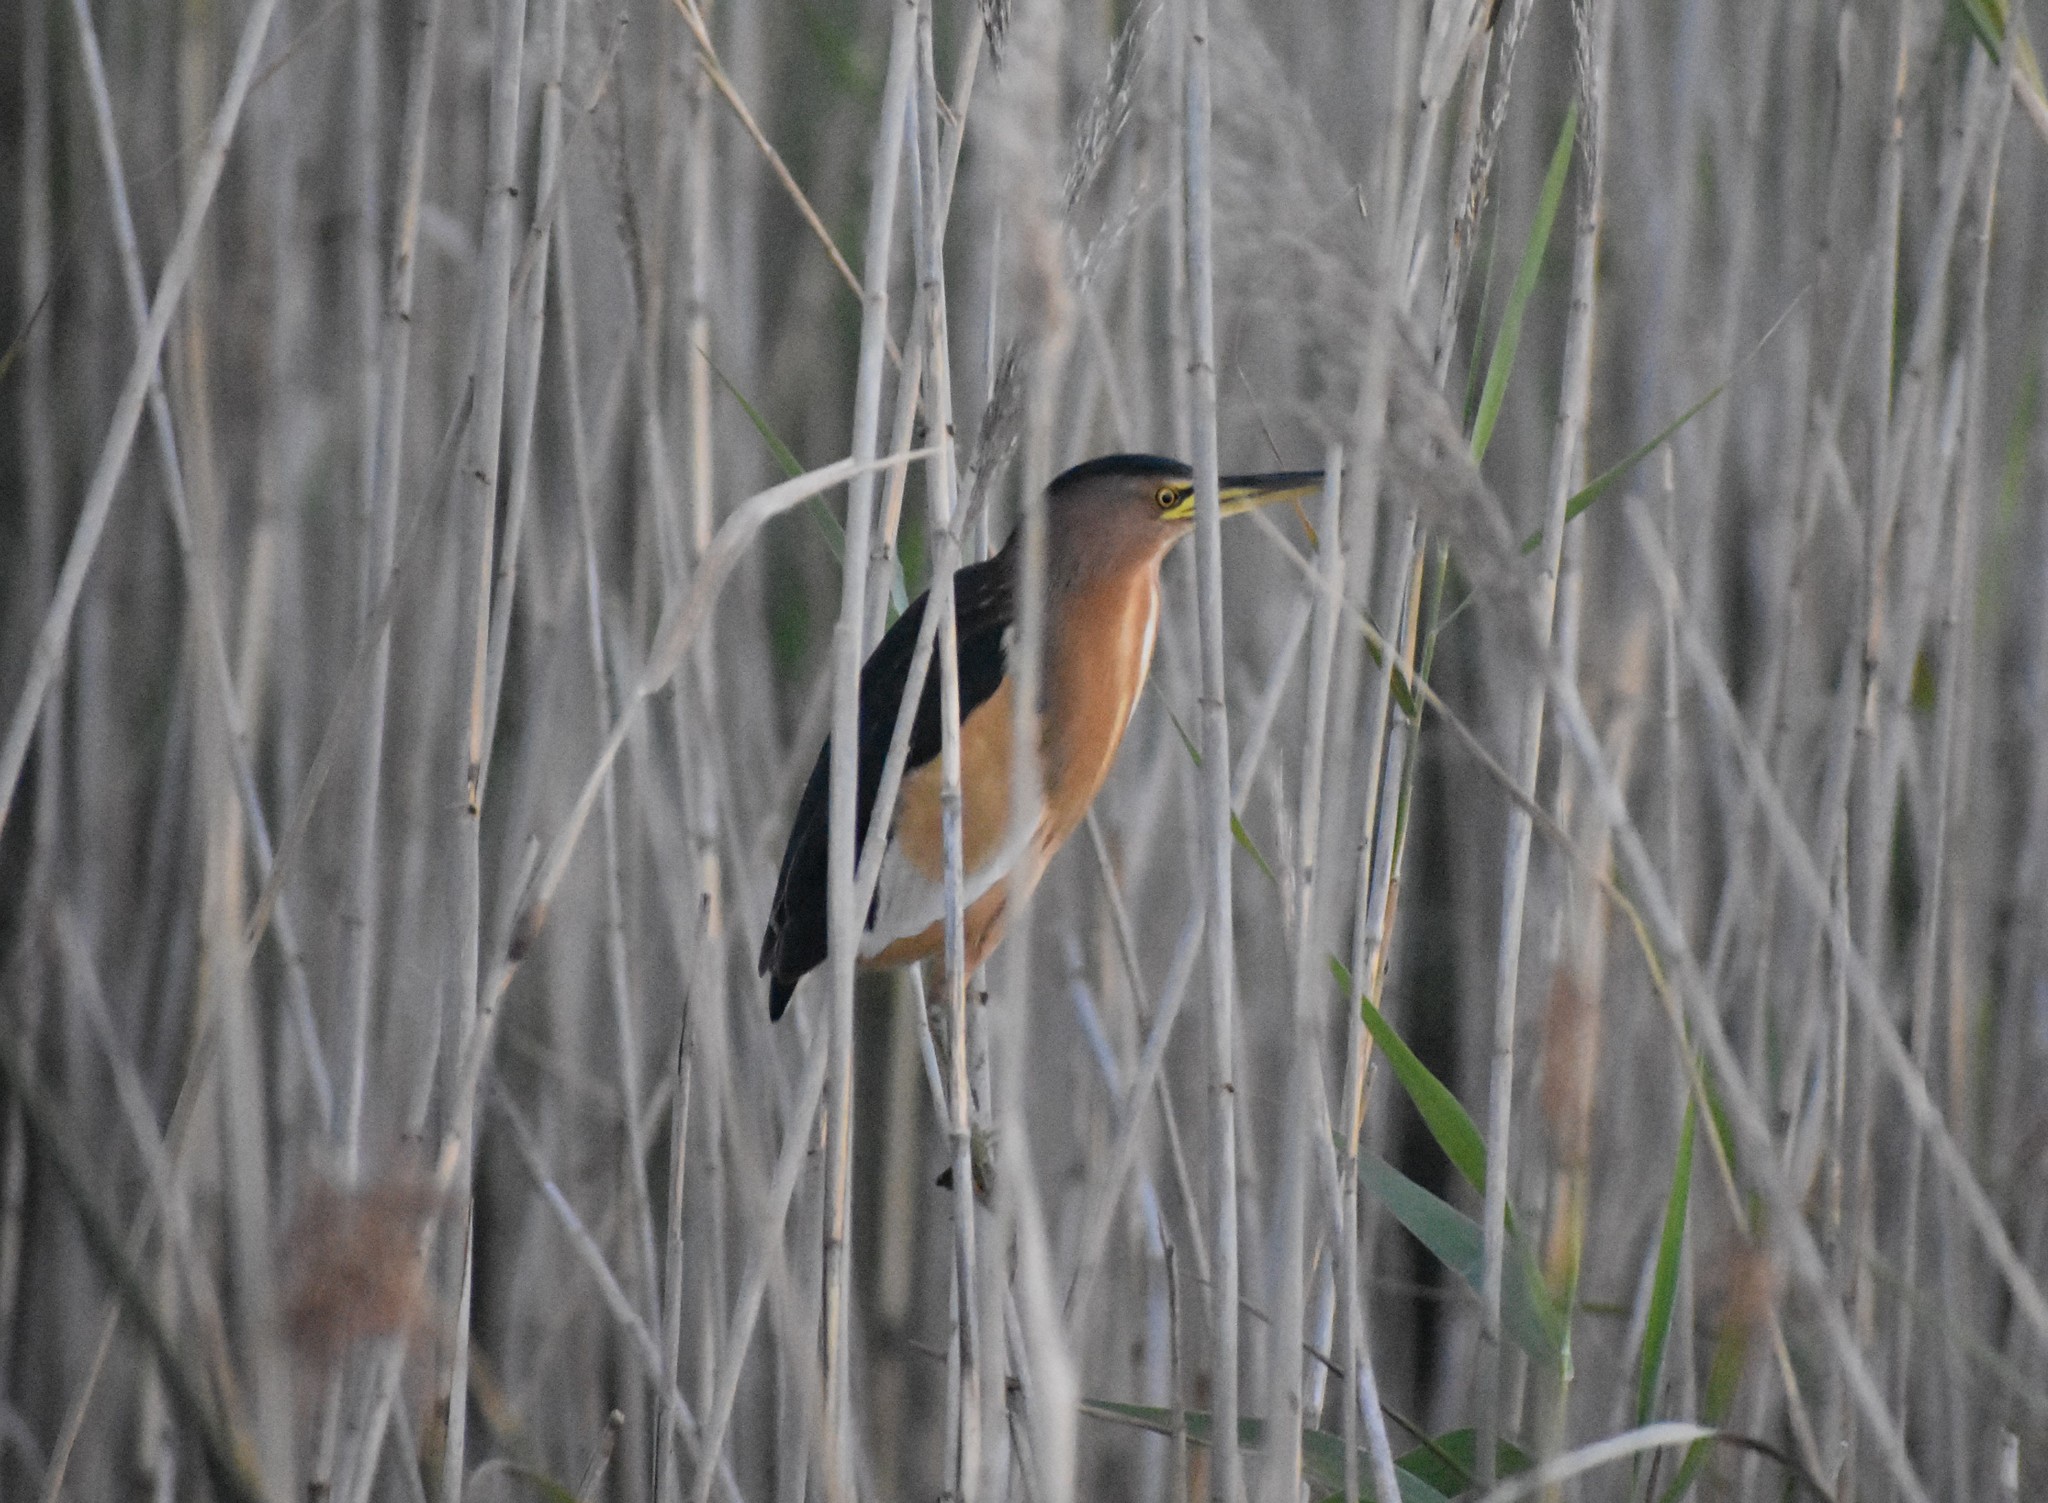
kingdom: Animalia
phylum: Chordata
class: Aves
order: Pelecaniformes
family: Ardeidae
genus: Ixobrychus
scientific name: Ixobrychus minutus
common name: Little bittern
